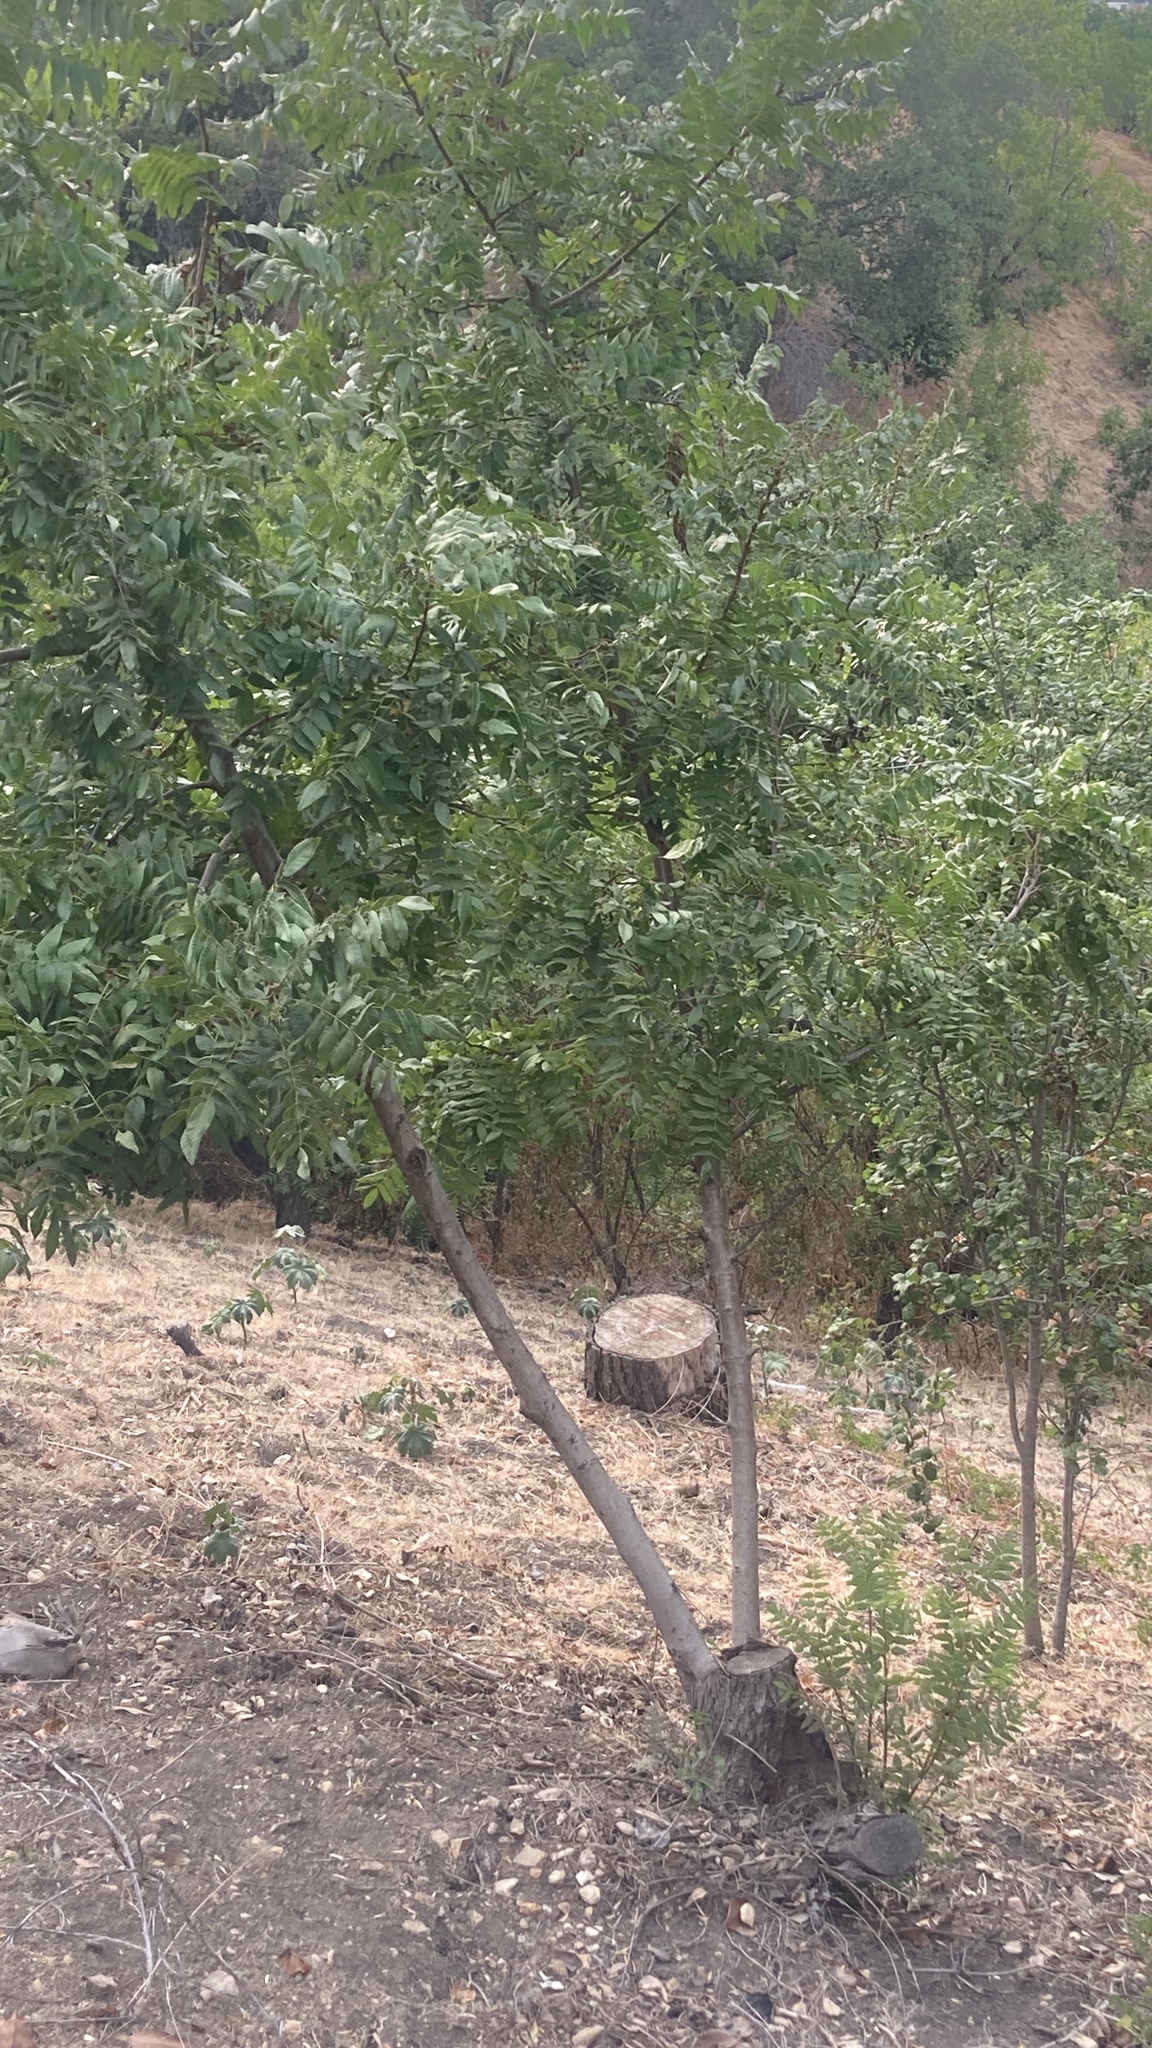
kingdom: Plantae
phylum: Tracheophyta
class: Magnoliopsida
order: Fagales
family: Juglandaceae
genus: Juglans
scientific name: Juglans californica
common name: Southern california black walnut
